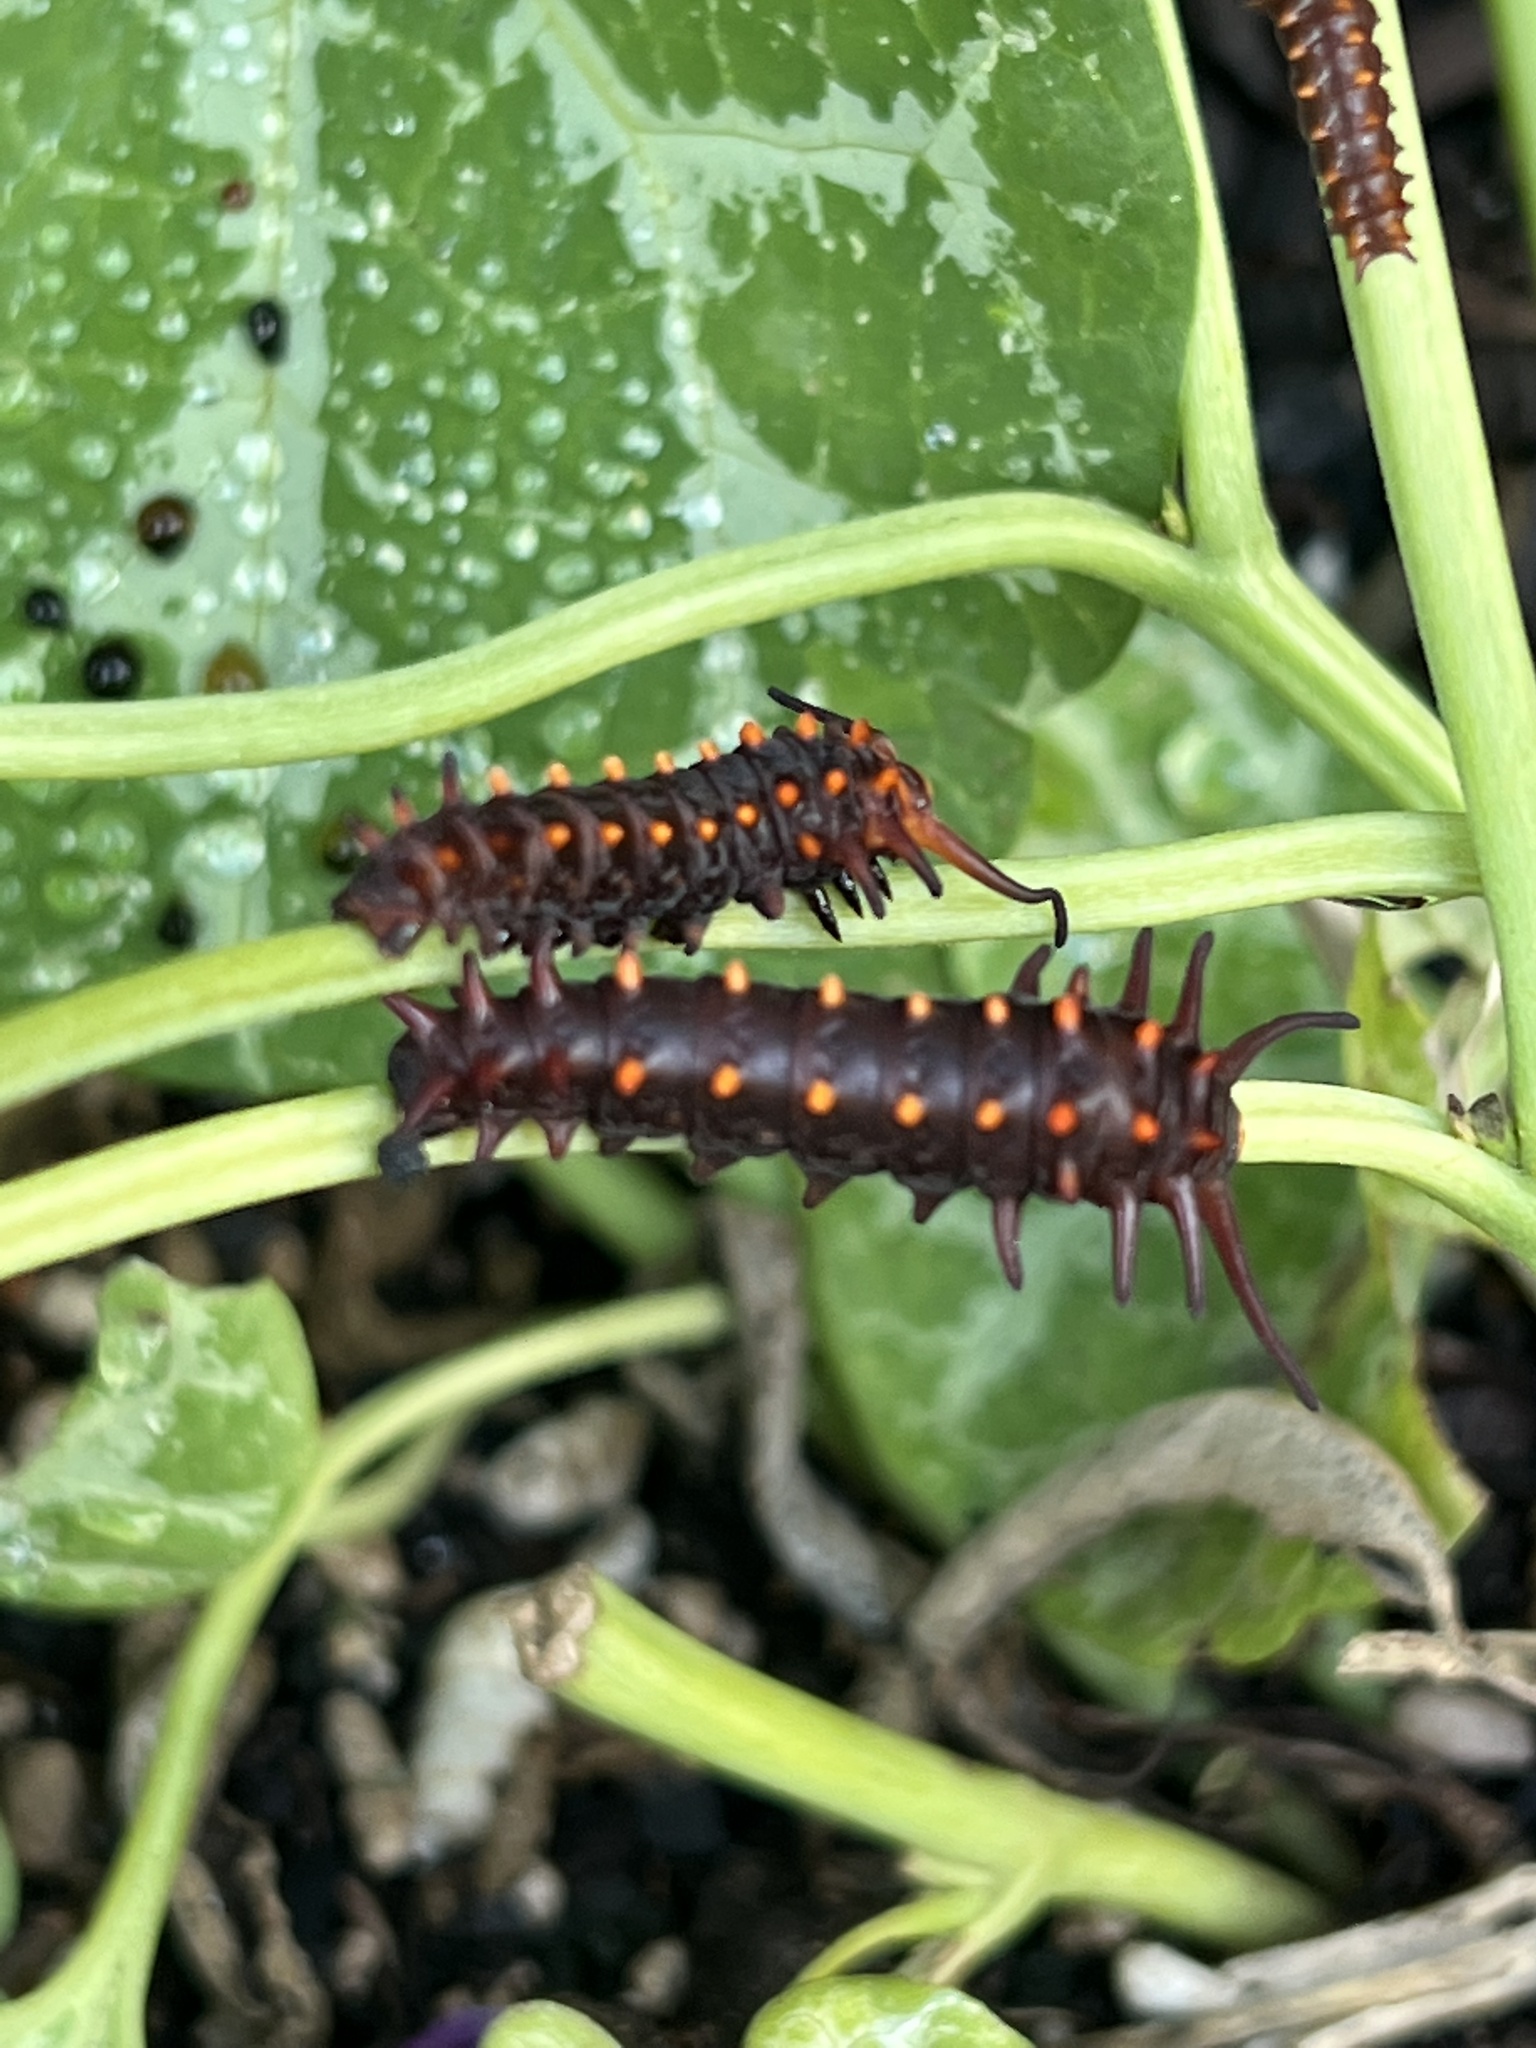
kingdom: Animalia
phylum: Arthropoda
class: Insecta
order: Lepidoptera
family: Papilionidae
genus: Battus
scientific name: Battus philenor
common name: Pipevine swallowtail
